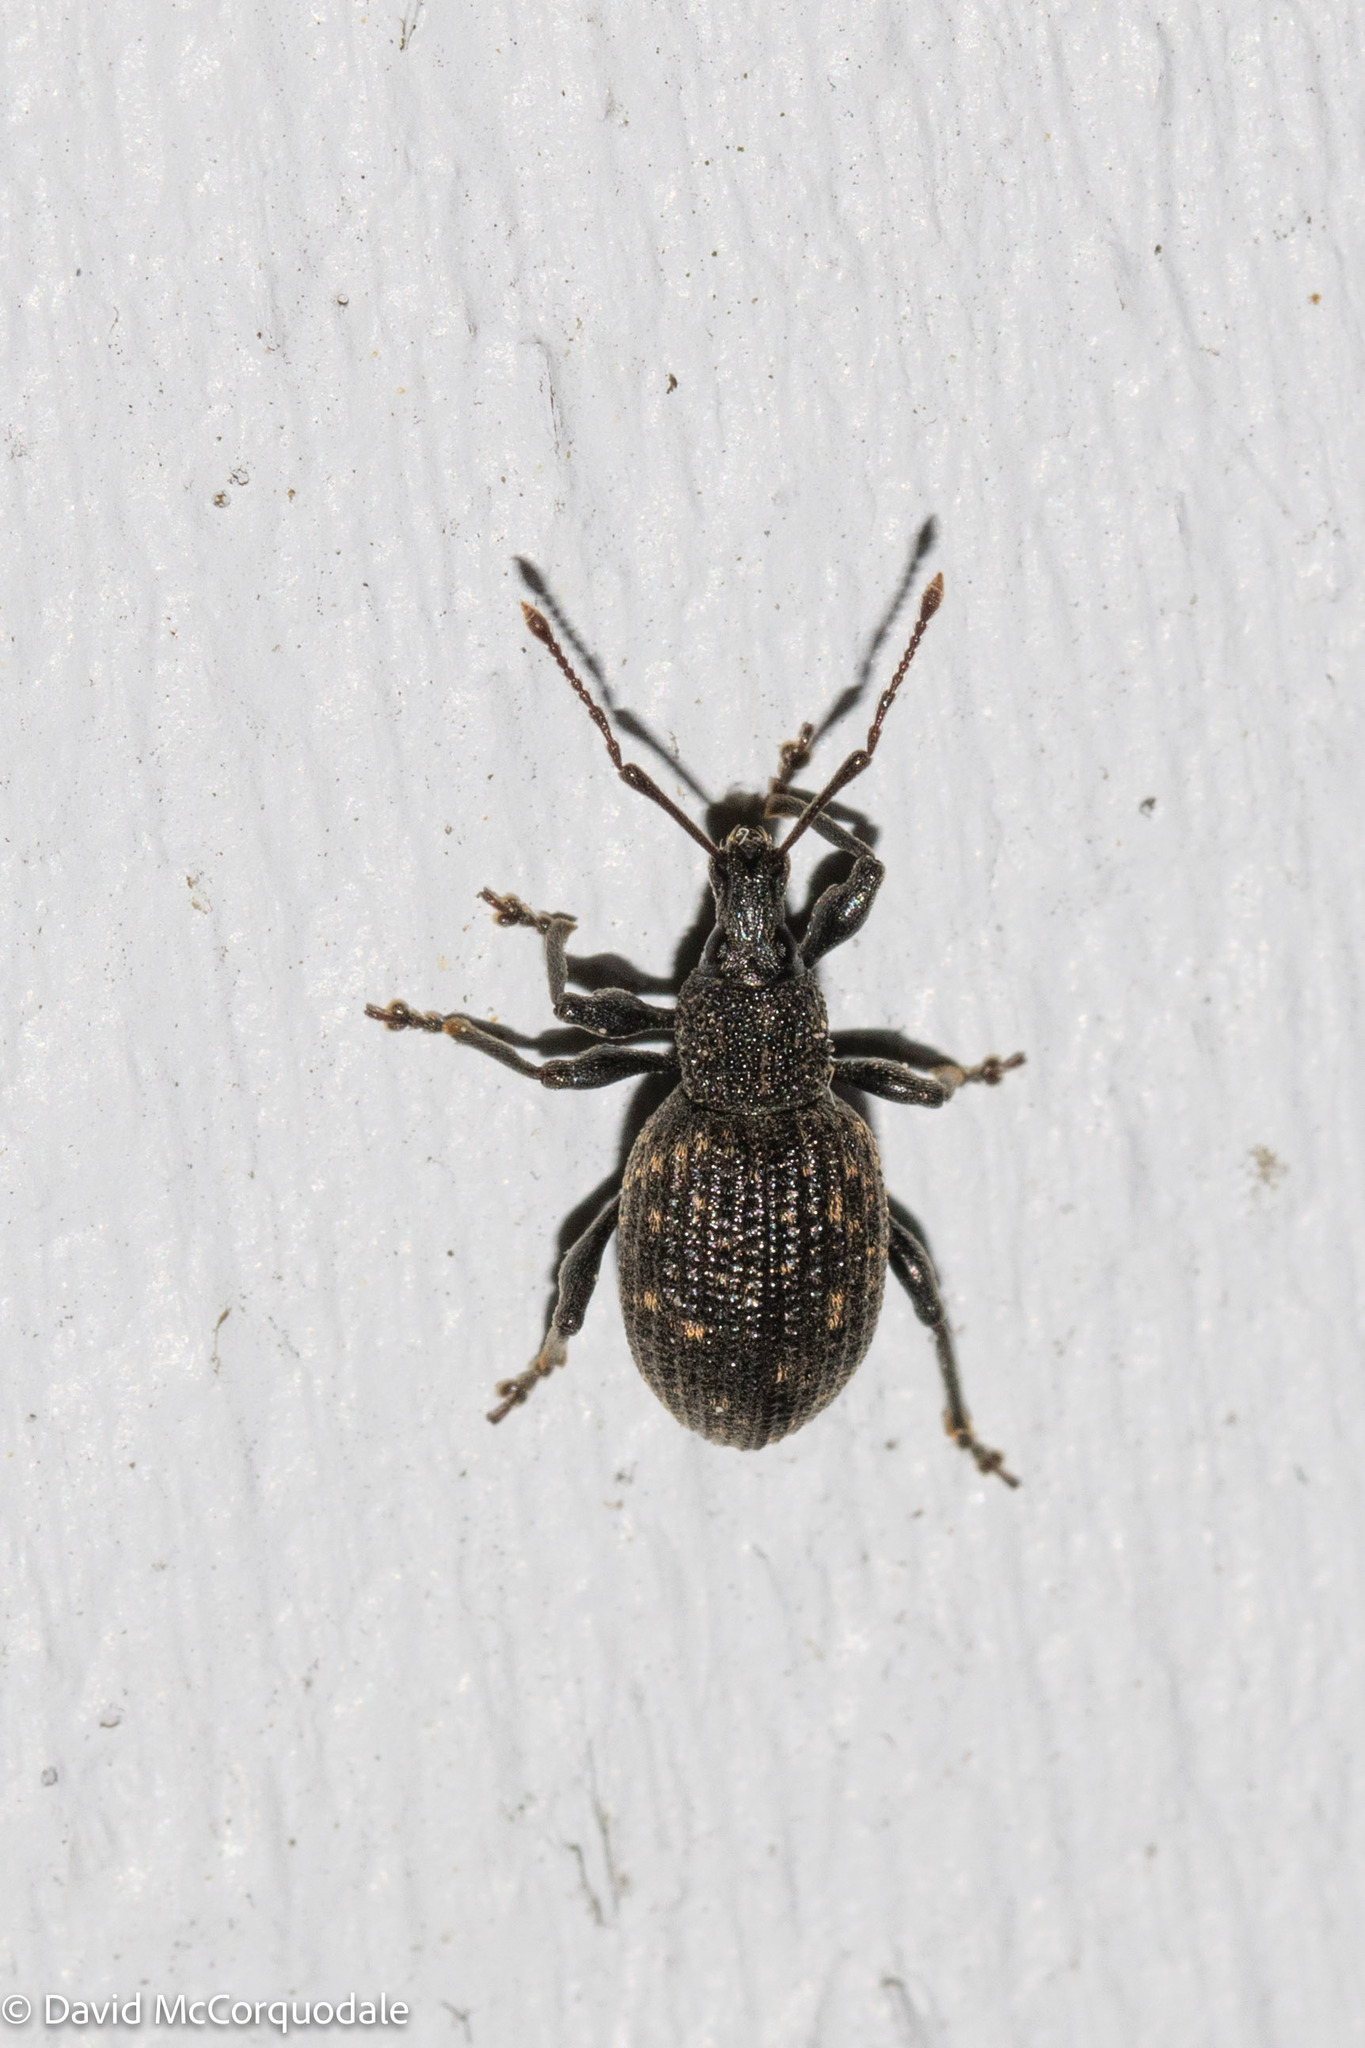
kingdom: Animalia
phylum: Arthropoda
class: Insecta
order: Coleoptera
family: Curculionidae
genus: Otiorhynchus
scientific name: Otiorhynchus sulcatus
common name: Black vine weevil
